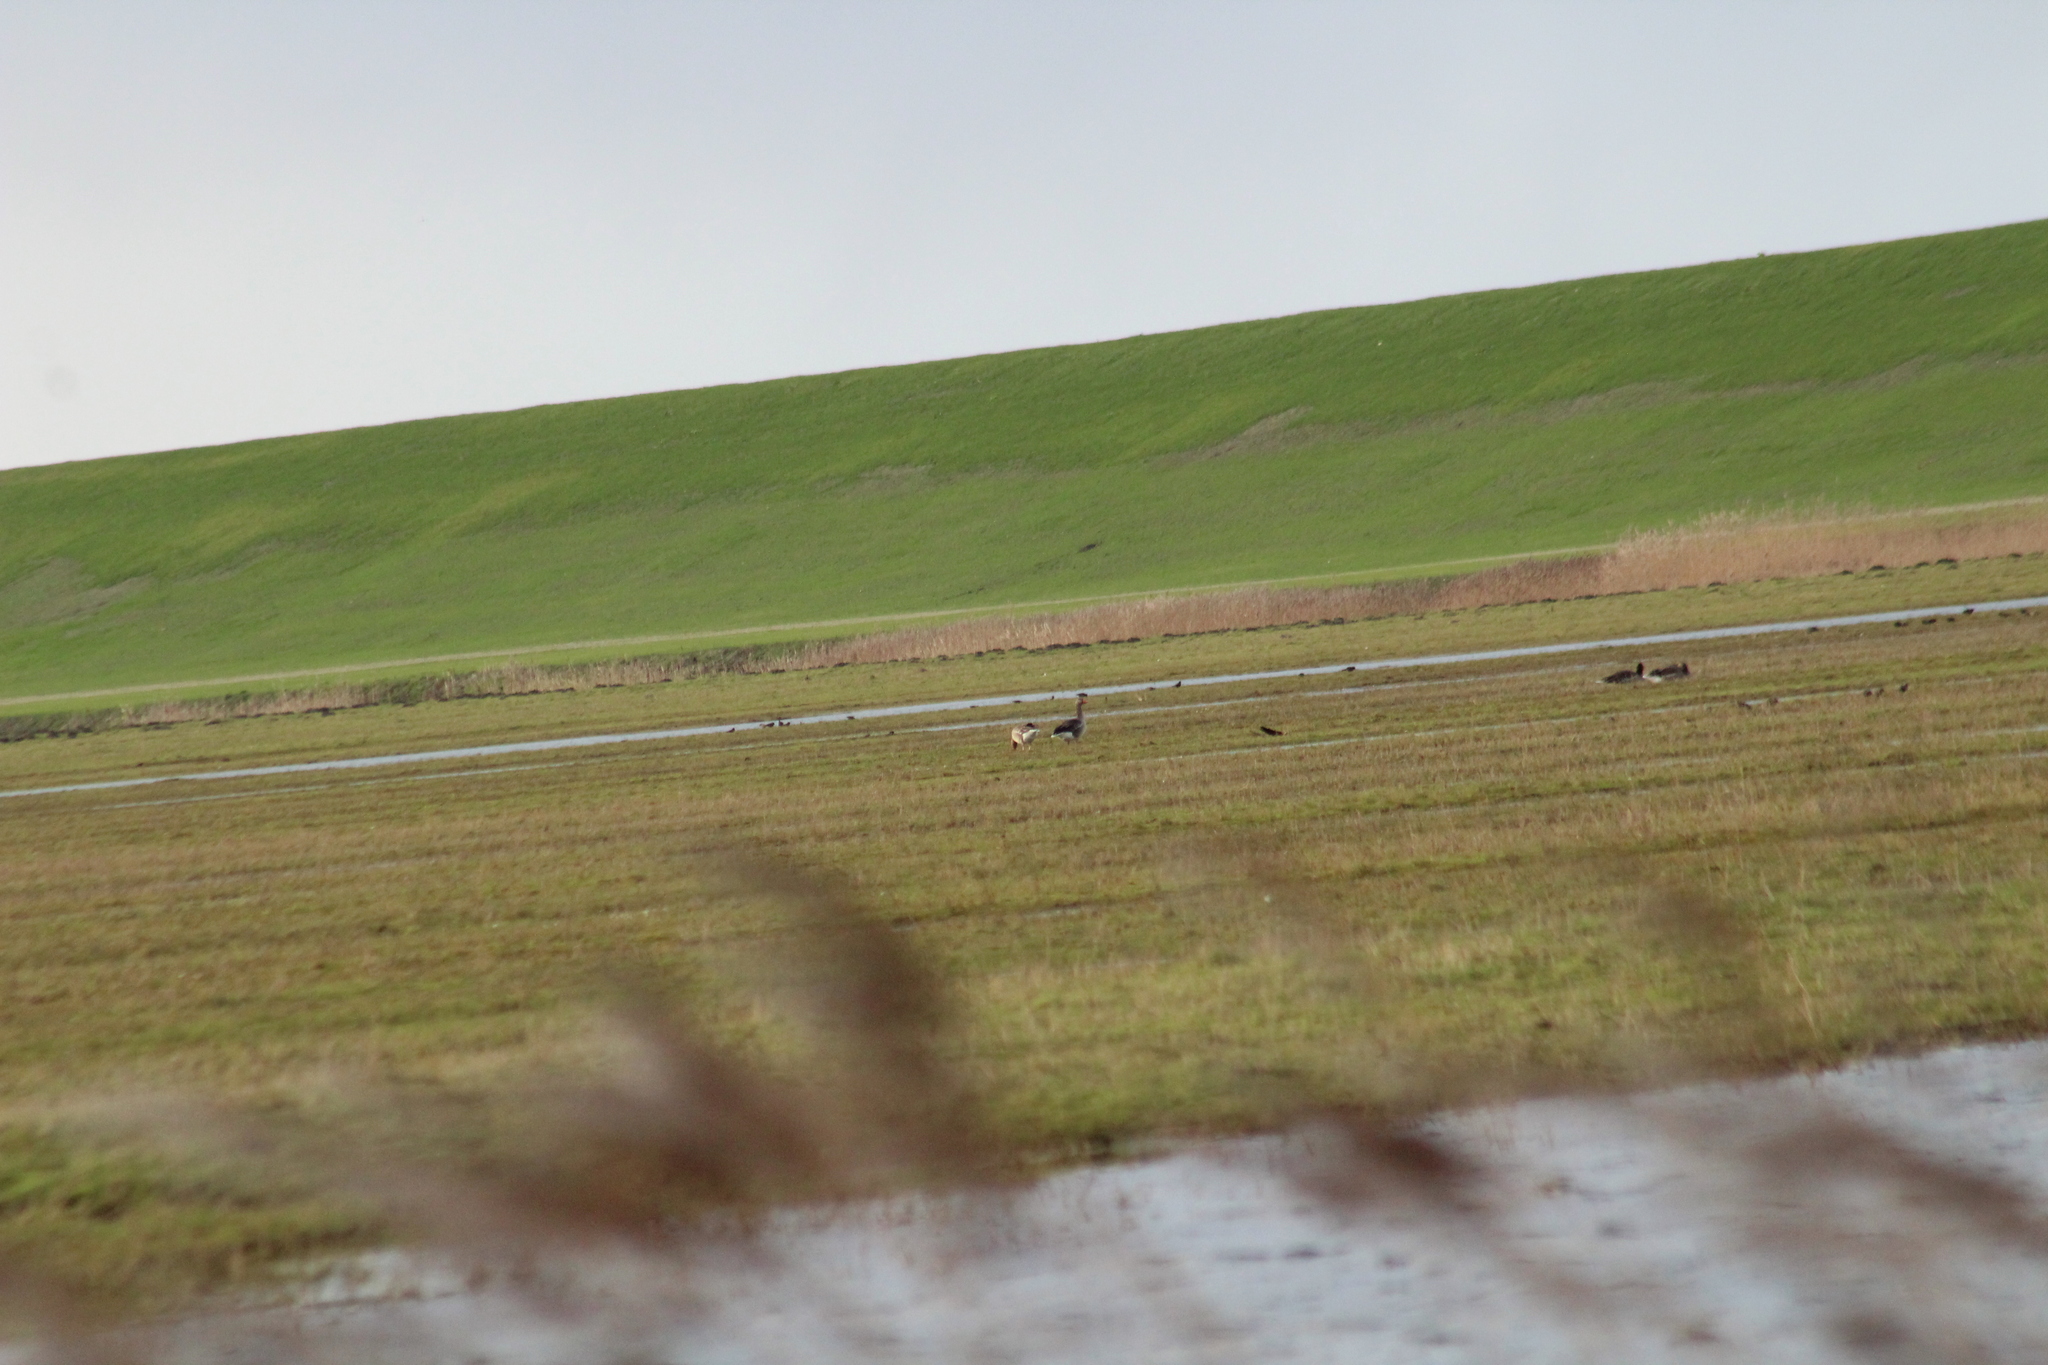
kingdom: Animalia
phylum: Chordata
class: Aves
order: Anseriformes
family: Anatidae
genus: Anser
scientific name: Anser anser
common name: Greylag goose
